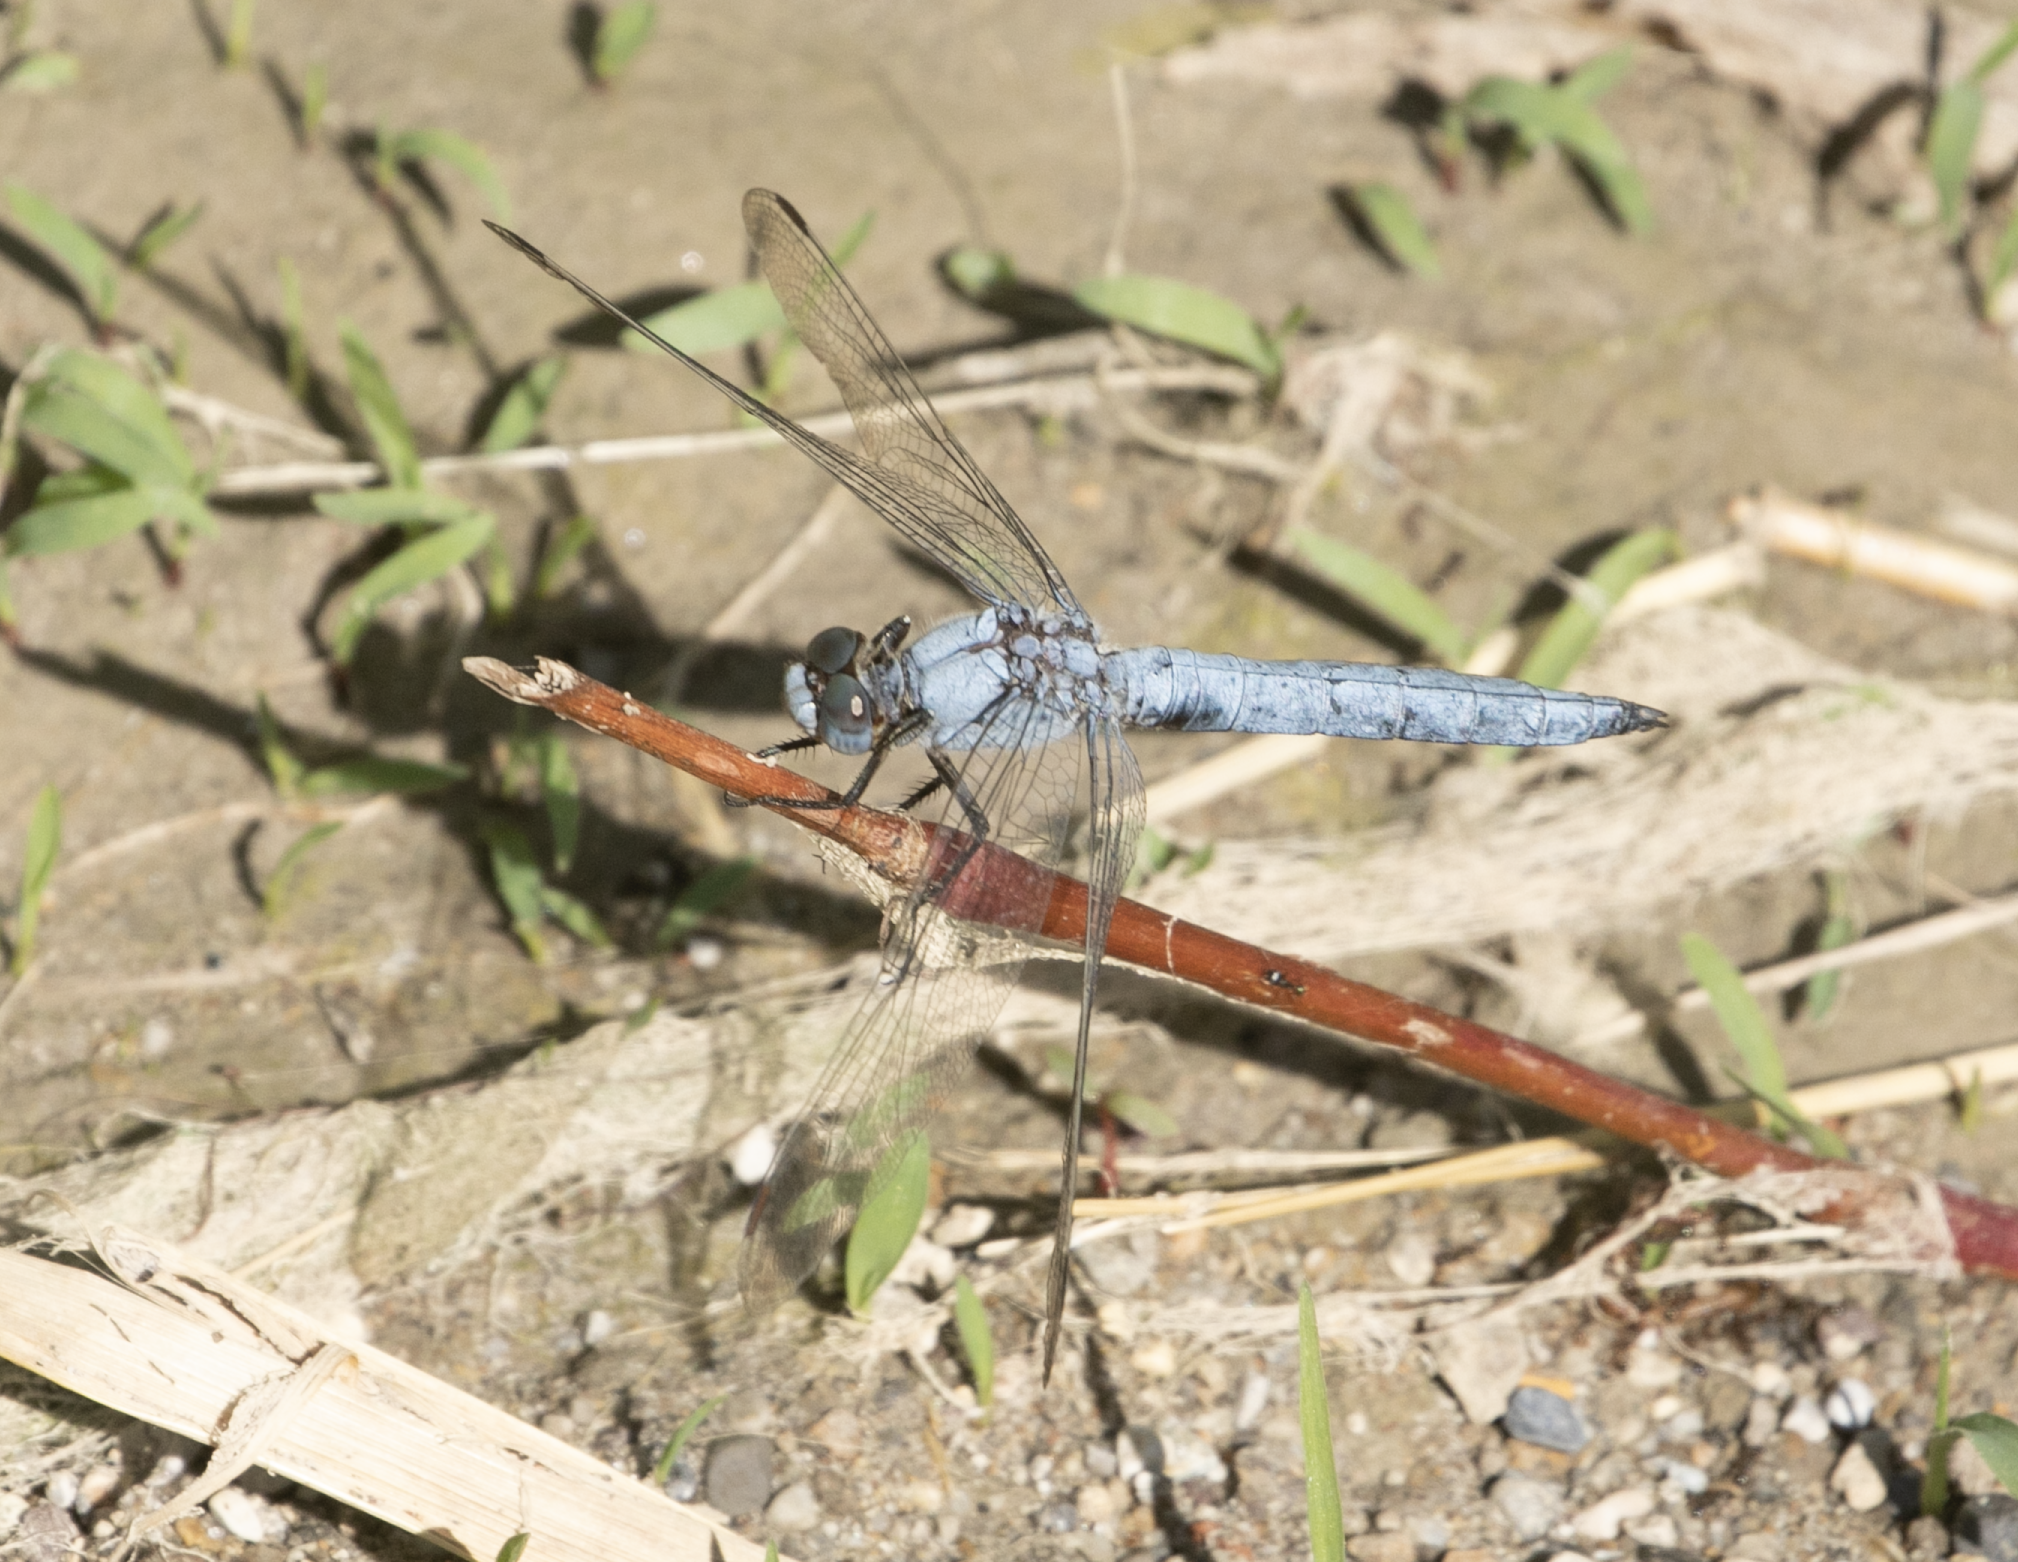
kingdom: Animalia
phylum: Arthropoda
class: Insecta
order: Odonata
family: Libellulidae
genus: Orthetrum
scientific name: Orthetrum brunneum
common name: Southern skimmer
